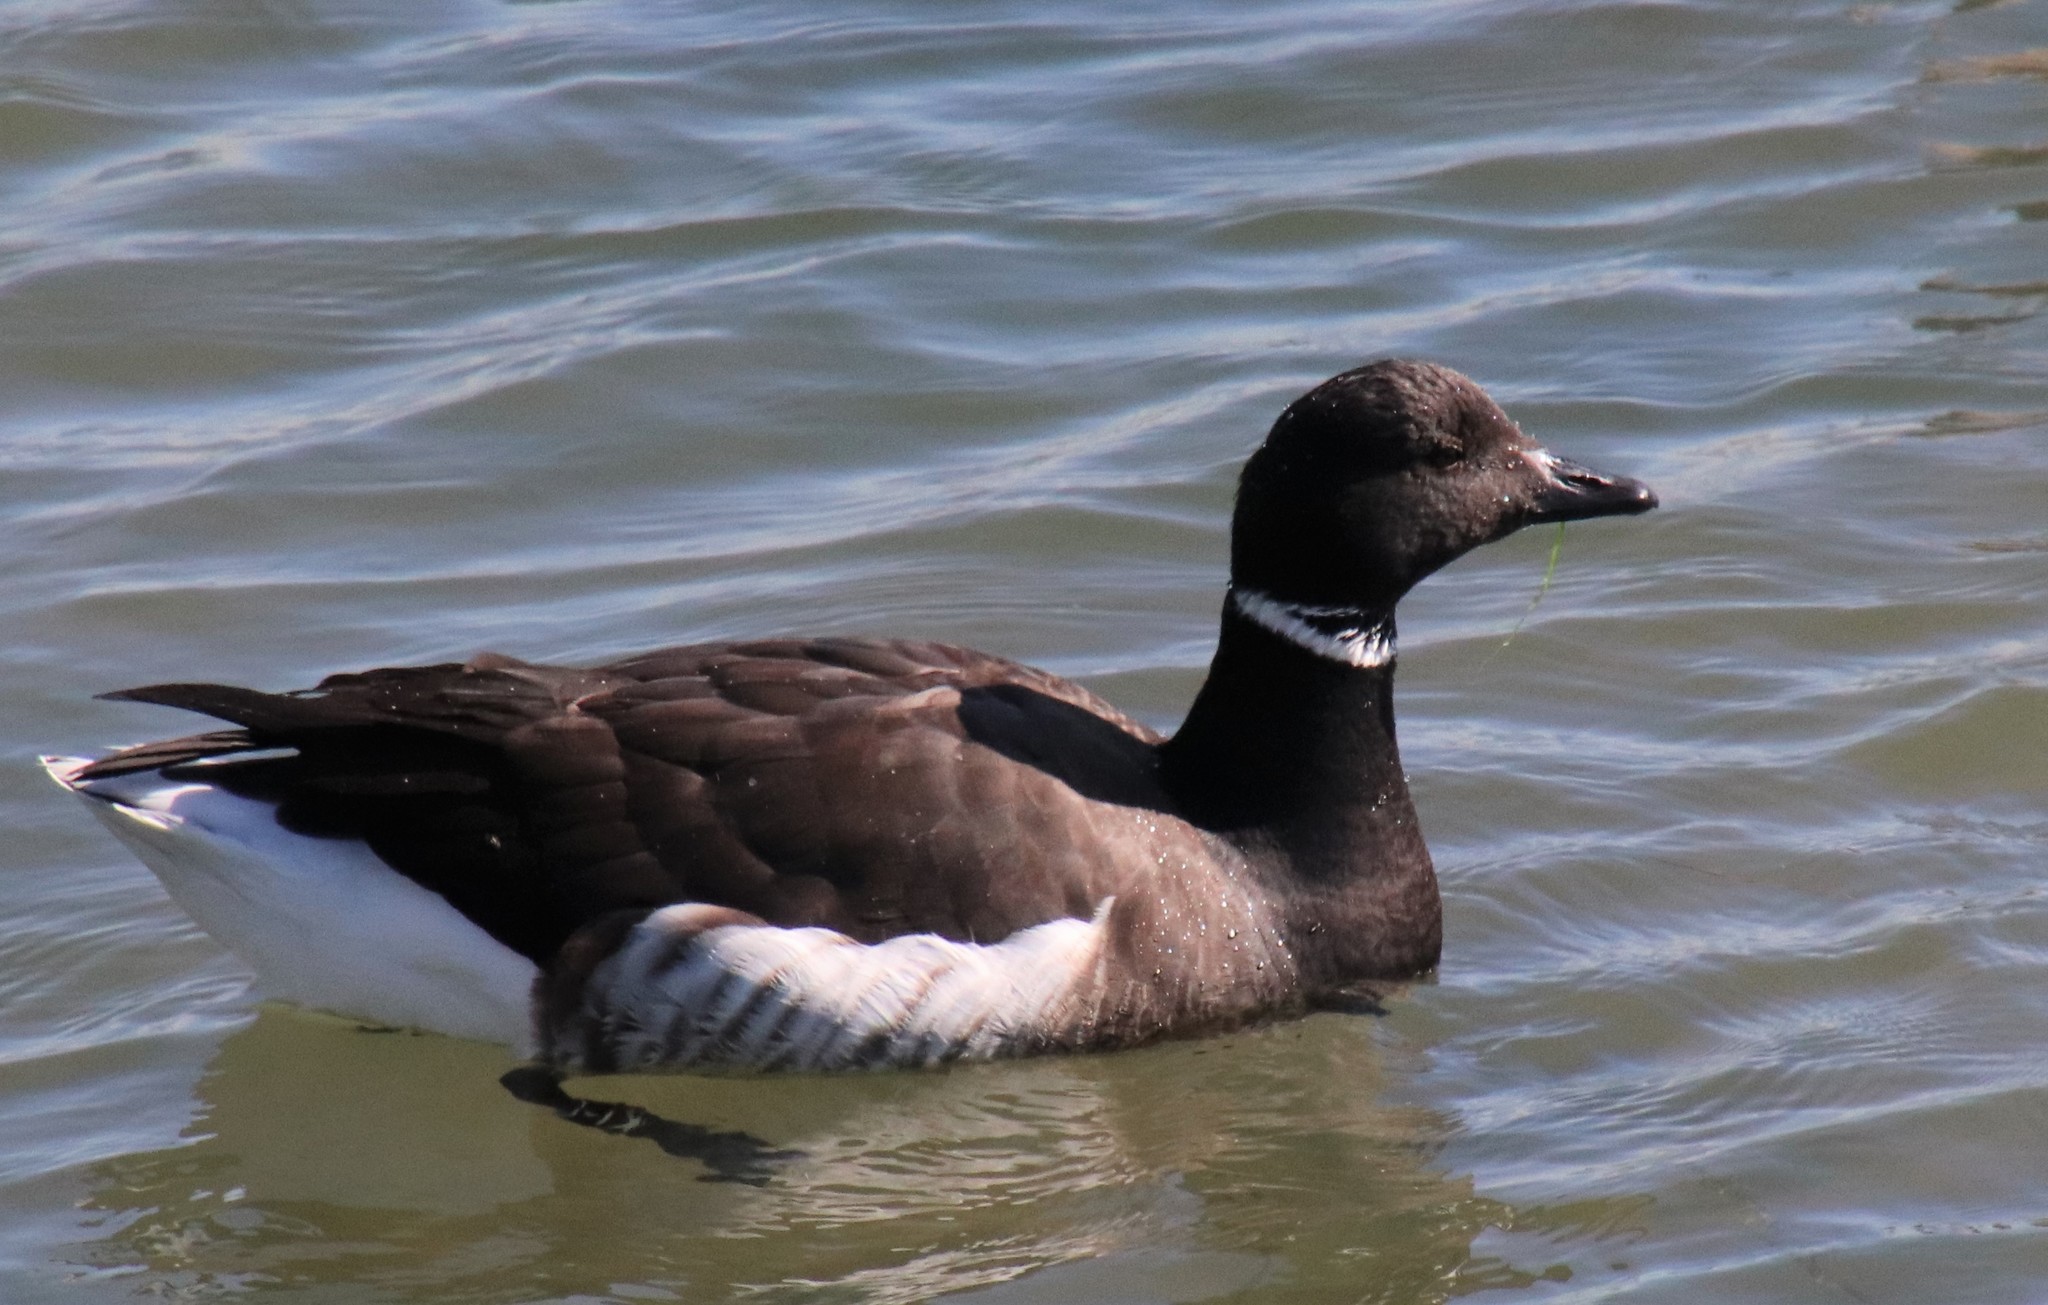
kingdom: Animalia
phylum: Chordata
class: Aves
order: Anseriformes
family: Anatidae
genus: Branta
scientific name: Branta bernicla
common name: Brant goose
